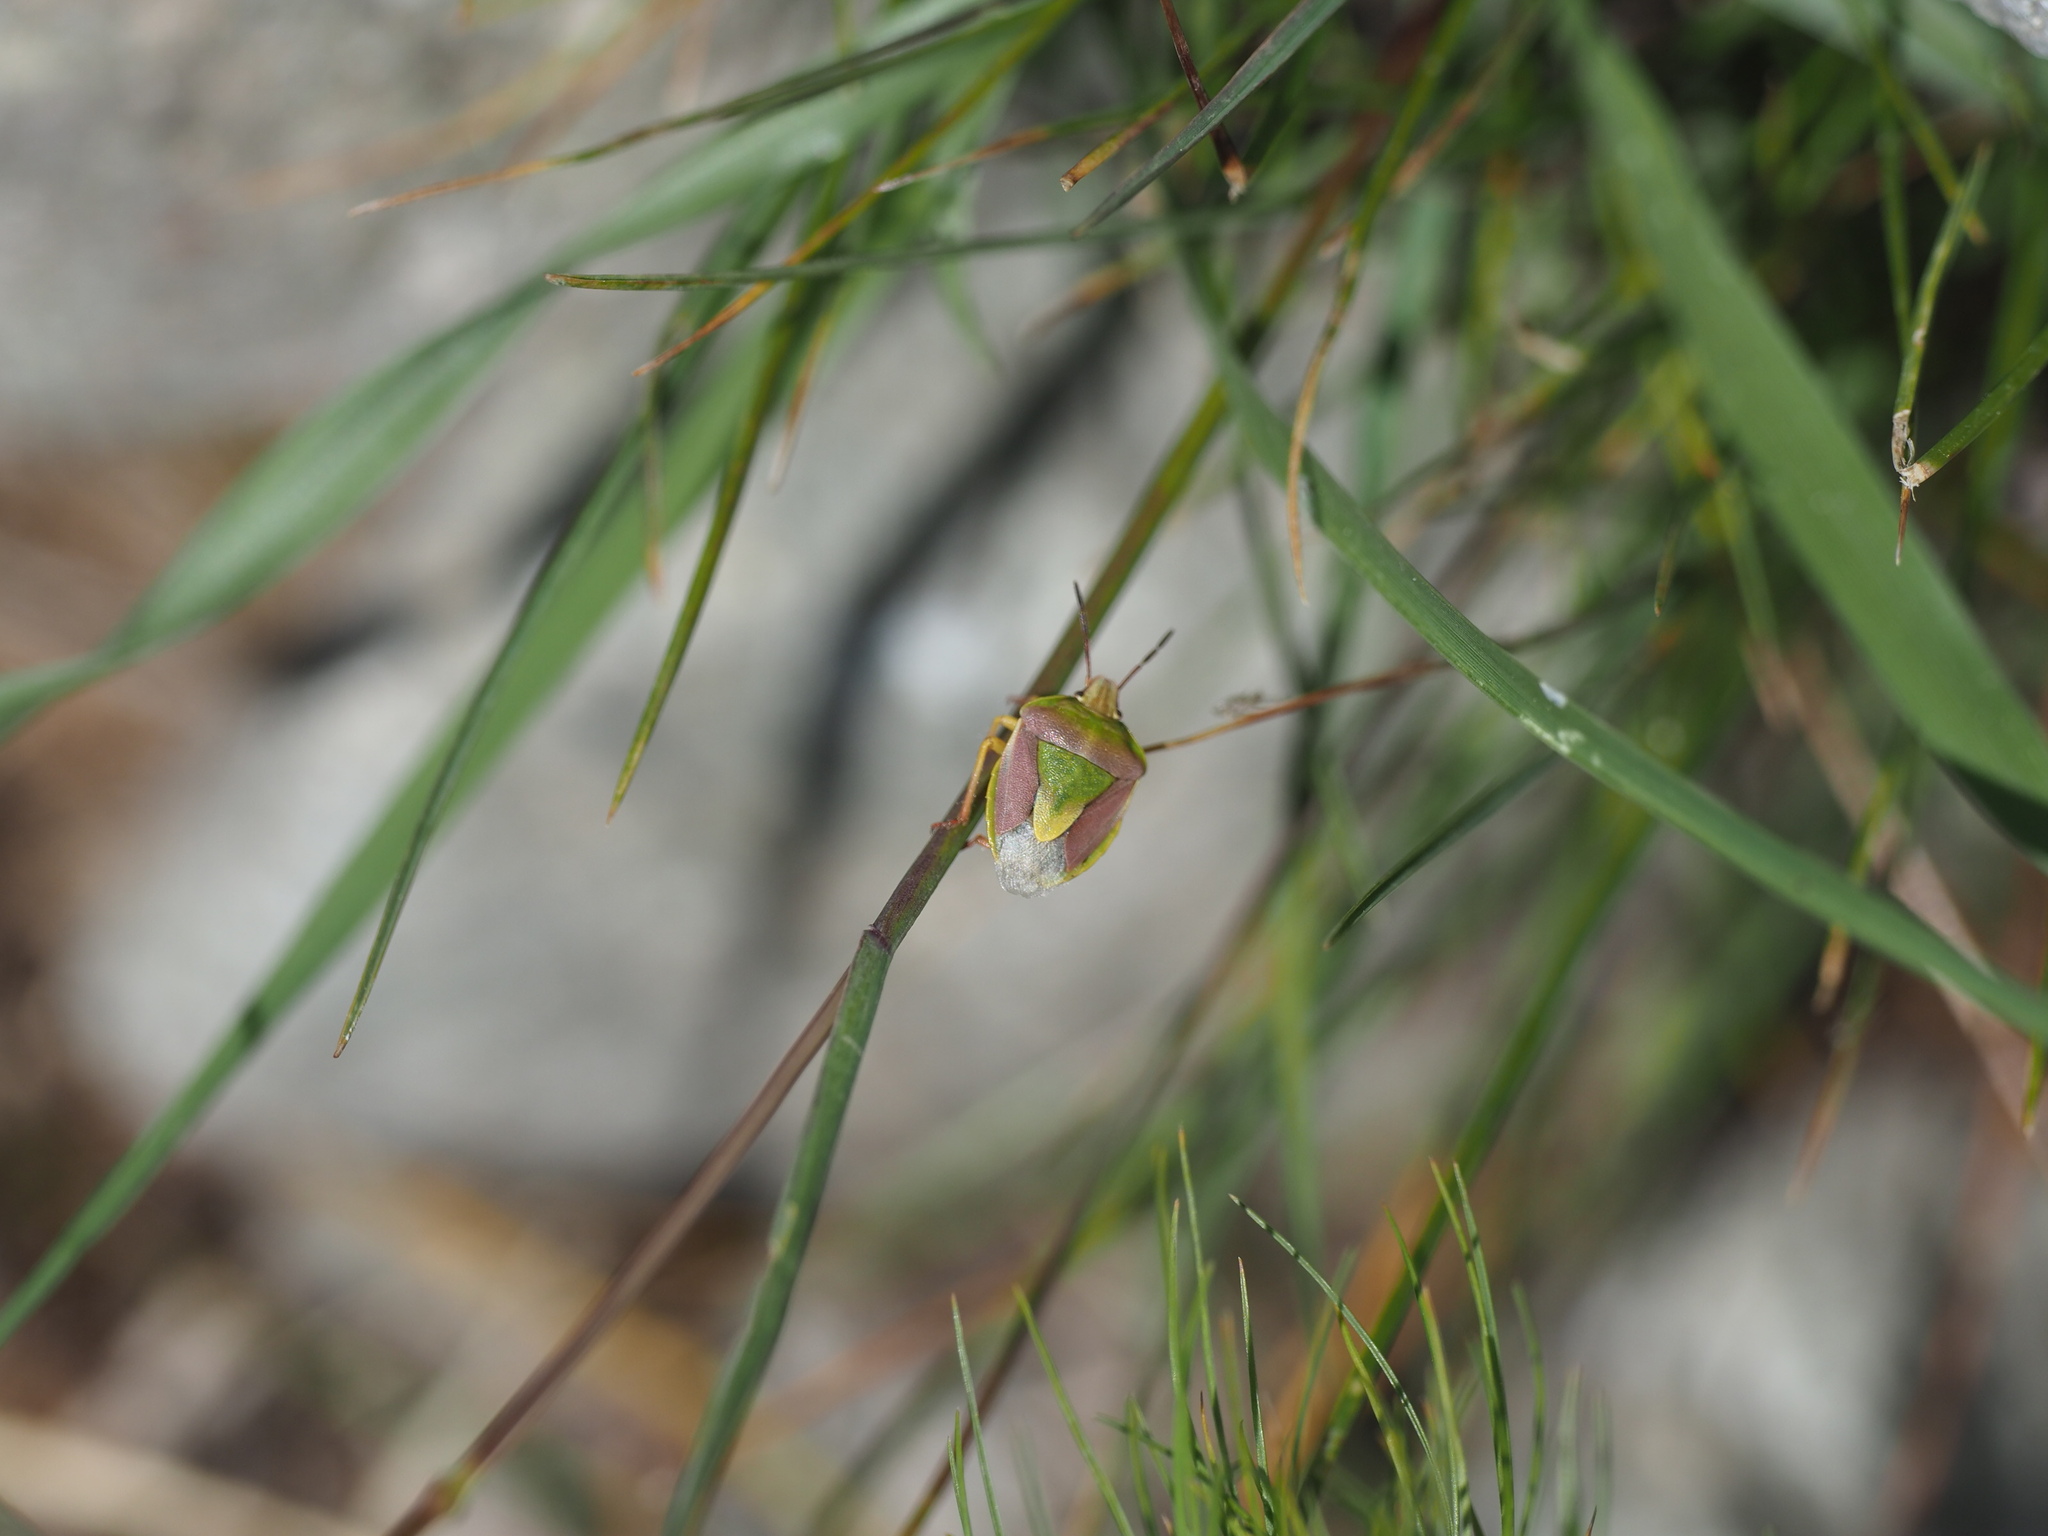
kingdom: Animalia
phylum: Arthropoda
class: Insecta
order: Hemiptera
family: Pentatomidae
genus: Antheminia
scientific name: Antheminia
